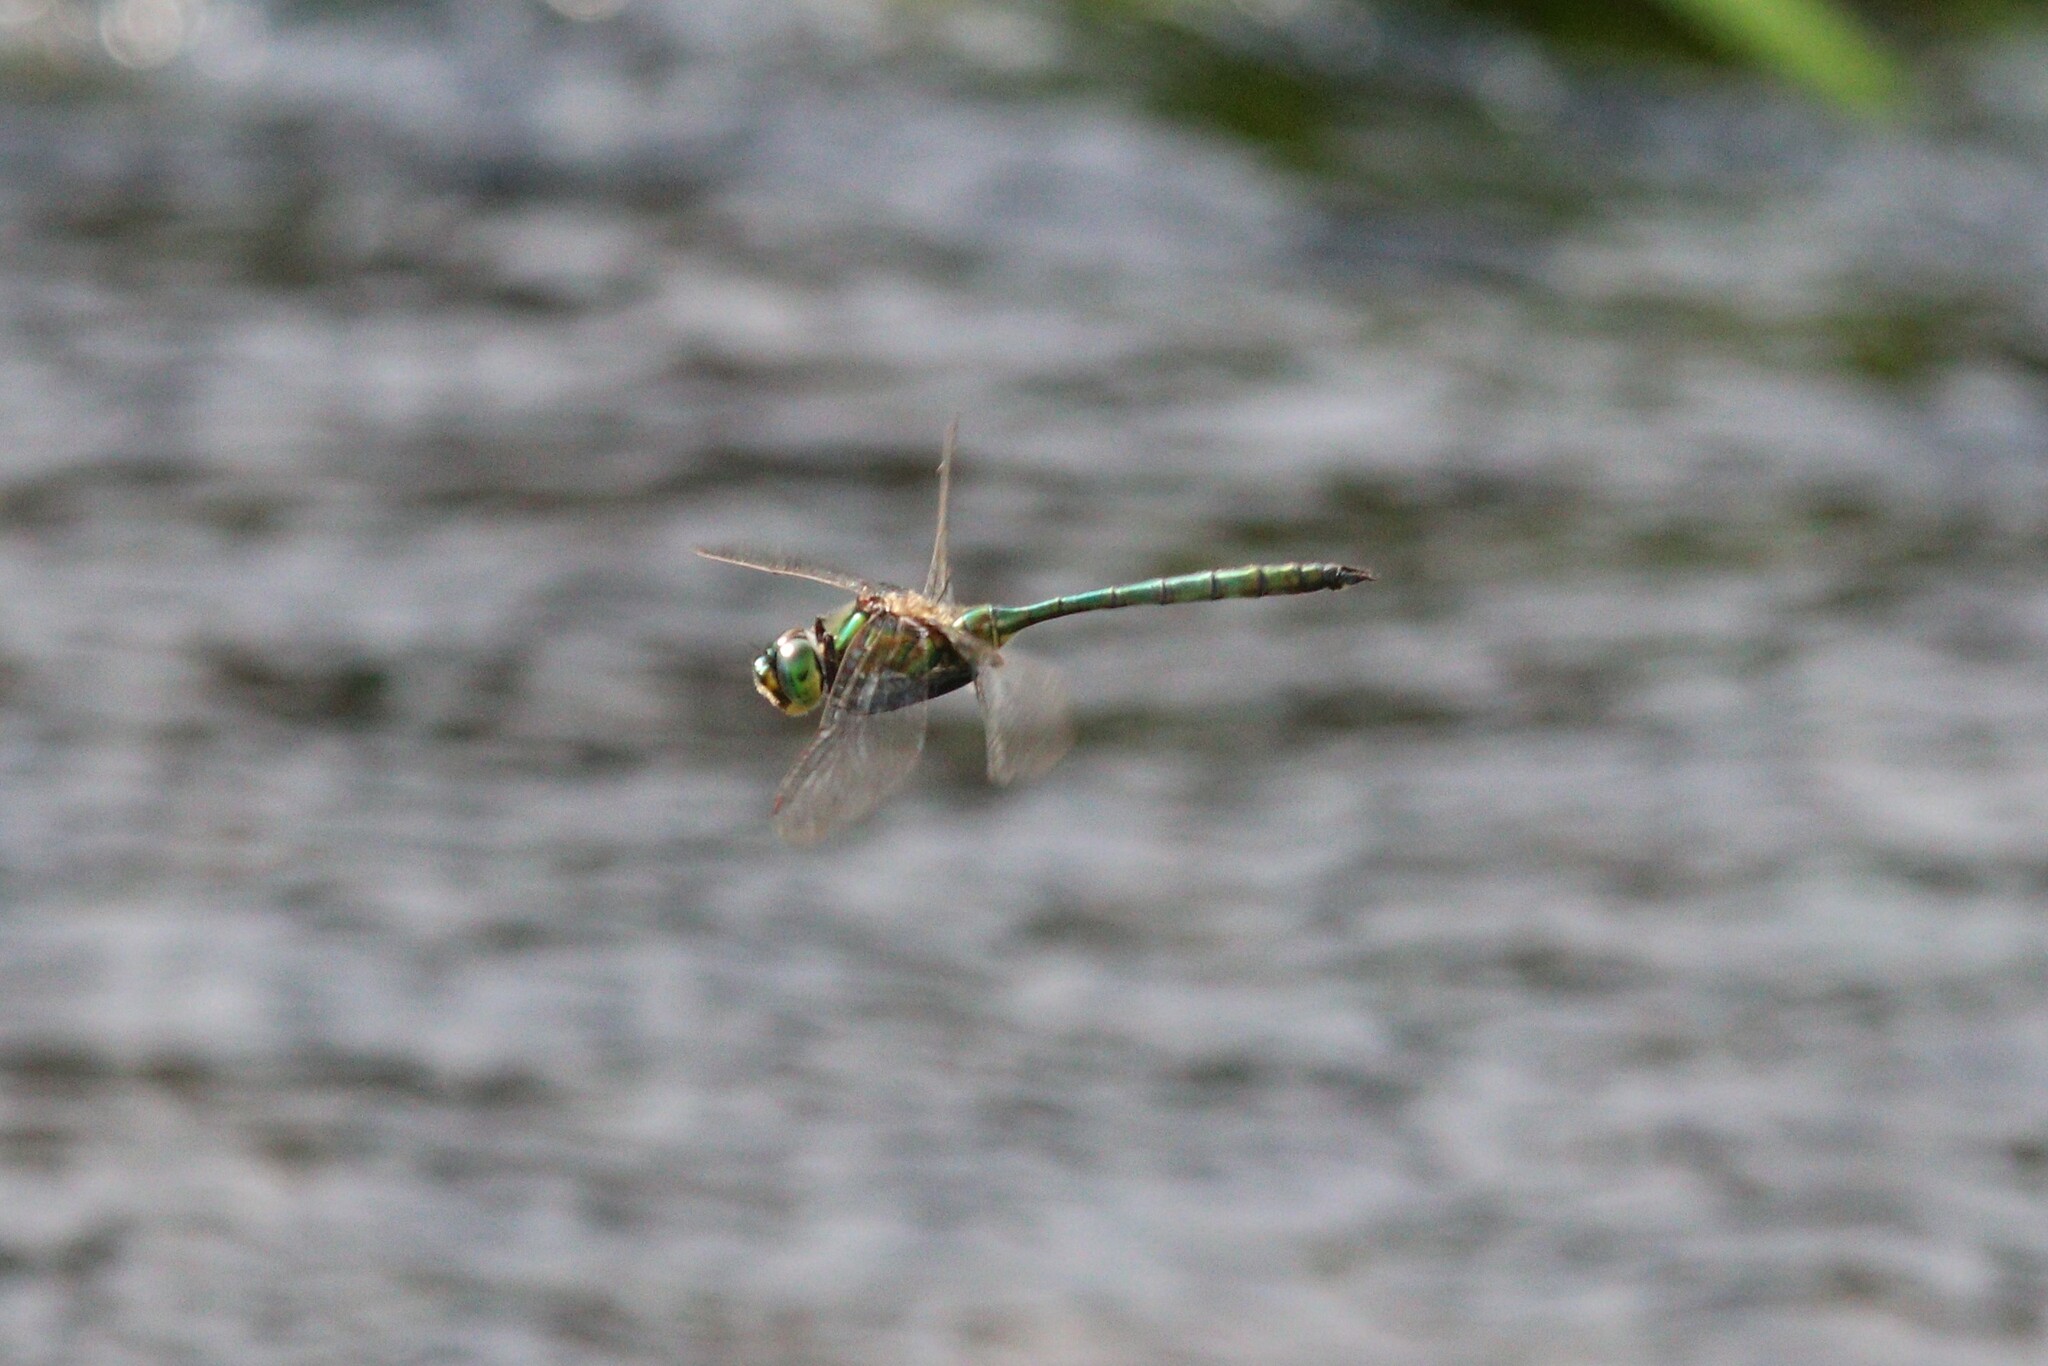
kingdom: Animalia
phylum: Arthropoda
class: Insecta
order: Odonata
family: Corduliidae
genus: Somatochlora
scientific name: Somatochlora metallica
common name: Brilliant emerald
